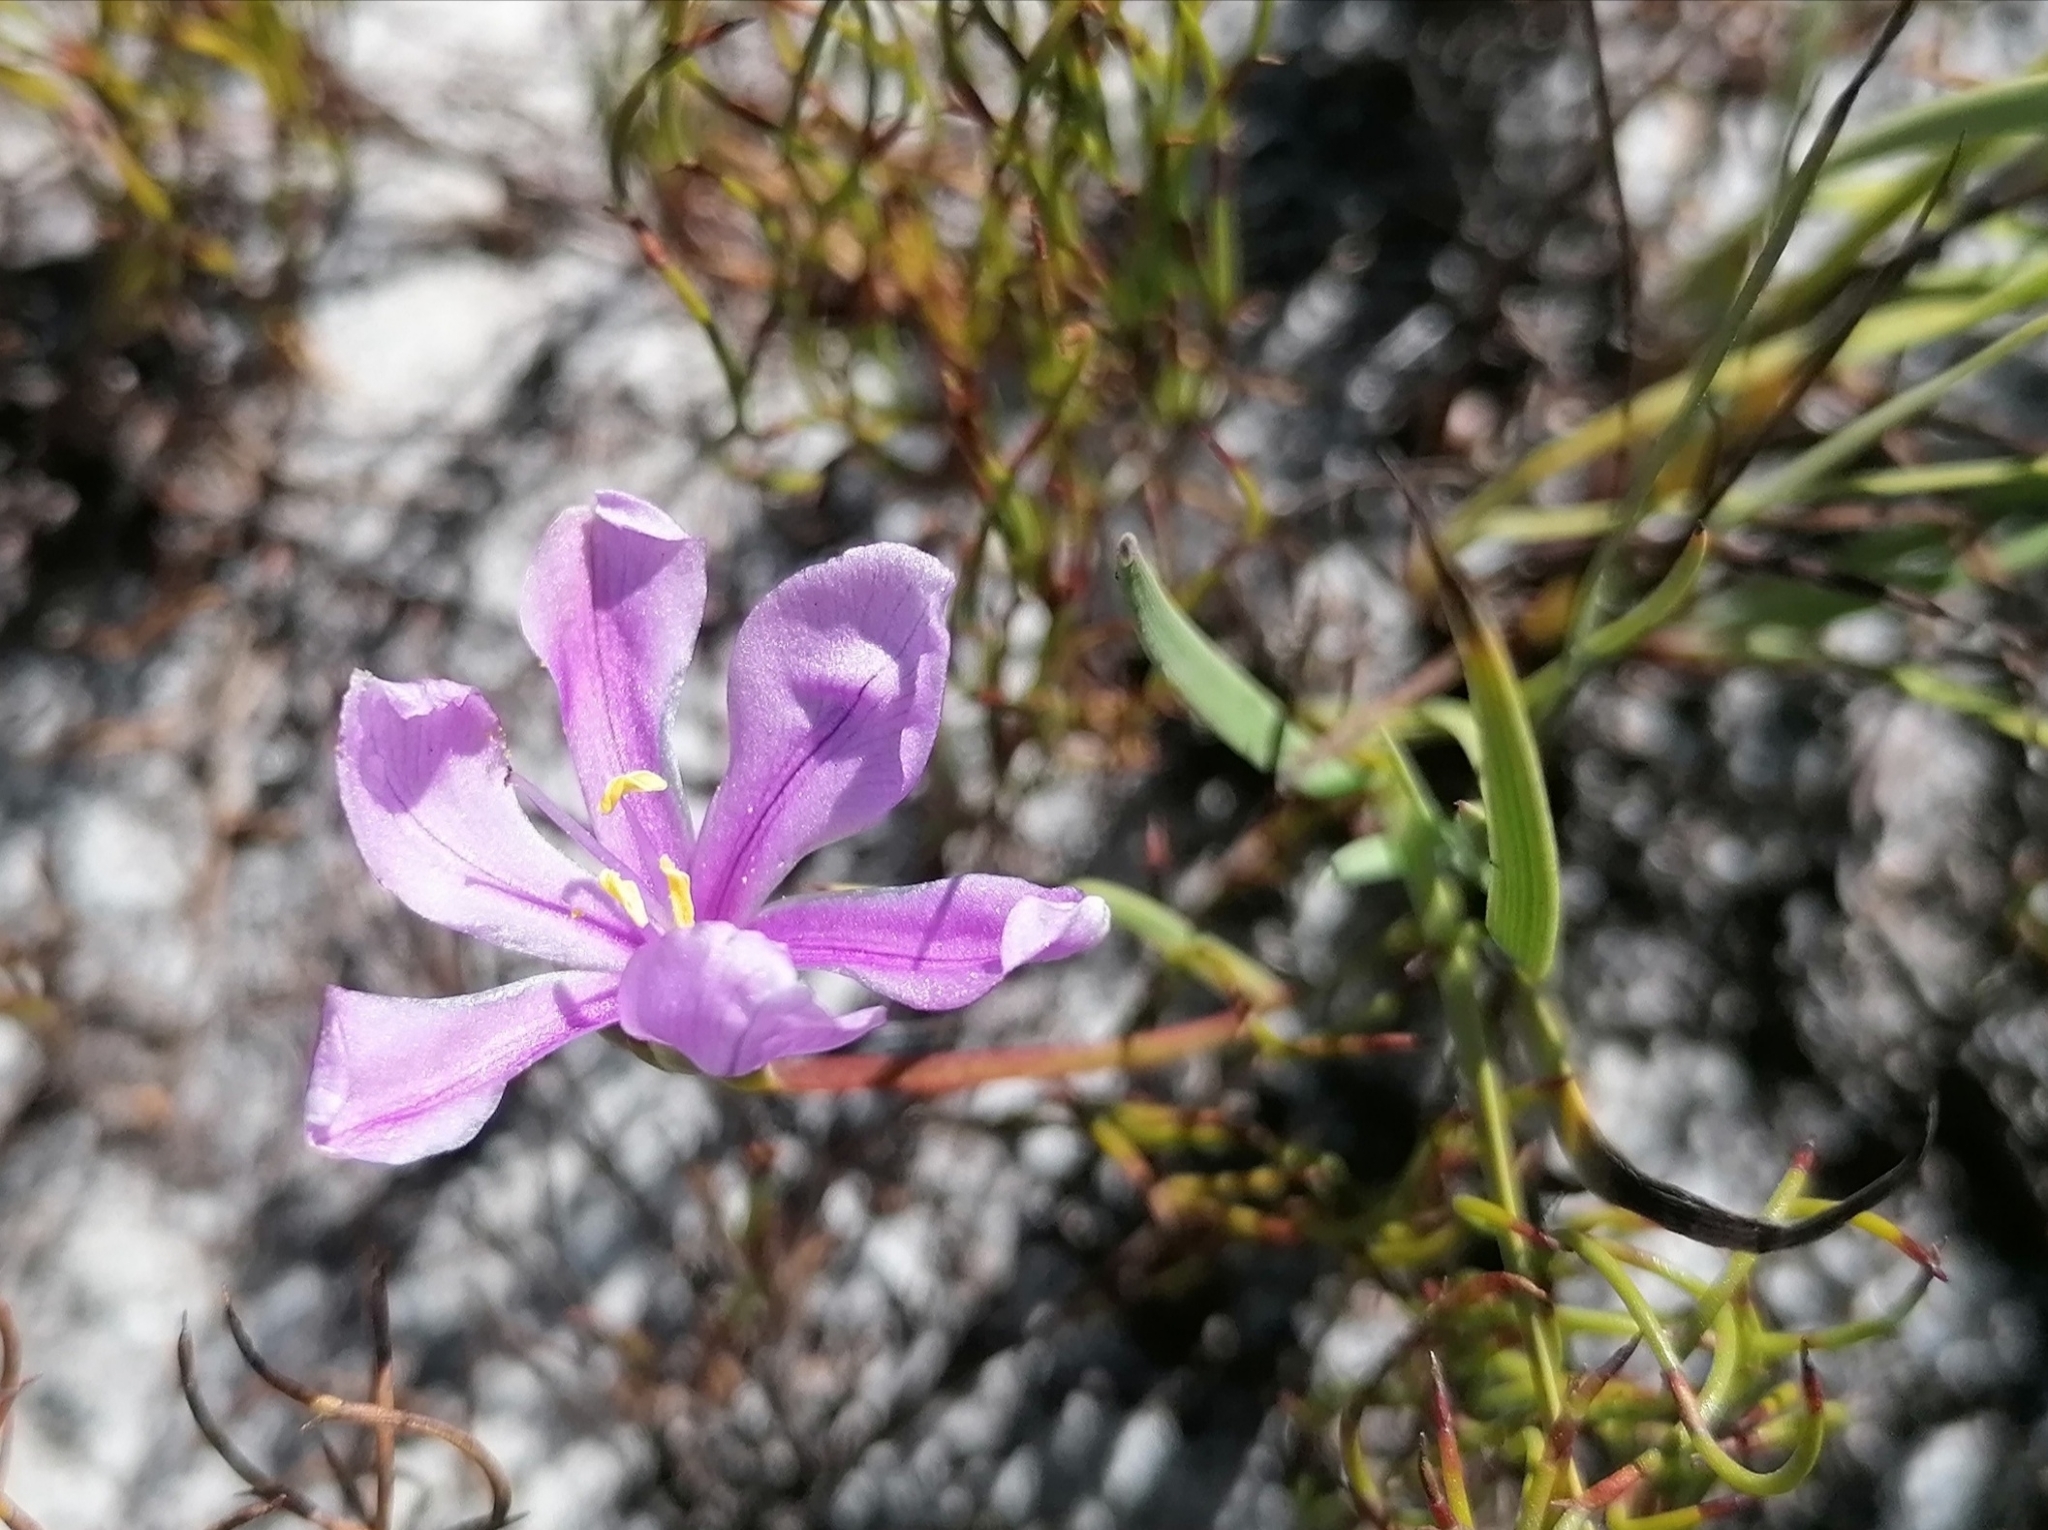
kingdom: Plantae
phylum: Tracheophyta
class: Liliopsida
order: Asparagales
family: Iridaceae
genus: Aristea
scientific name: Aristea glauca
